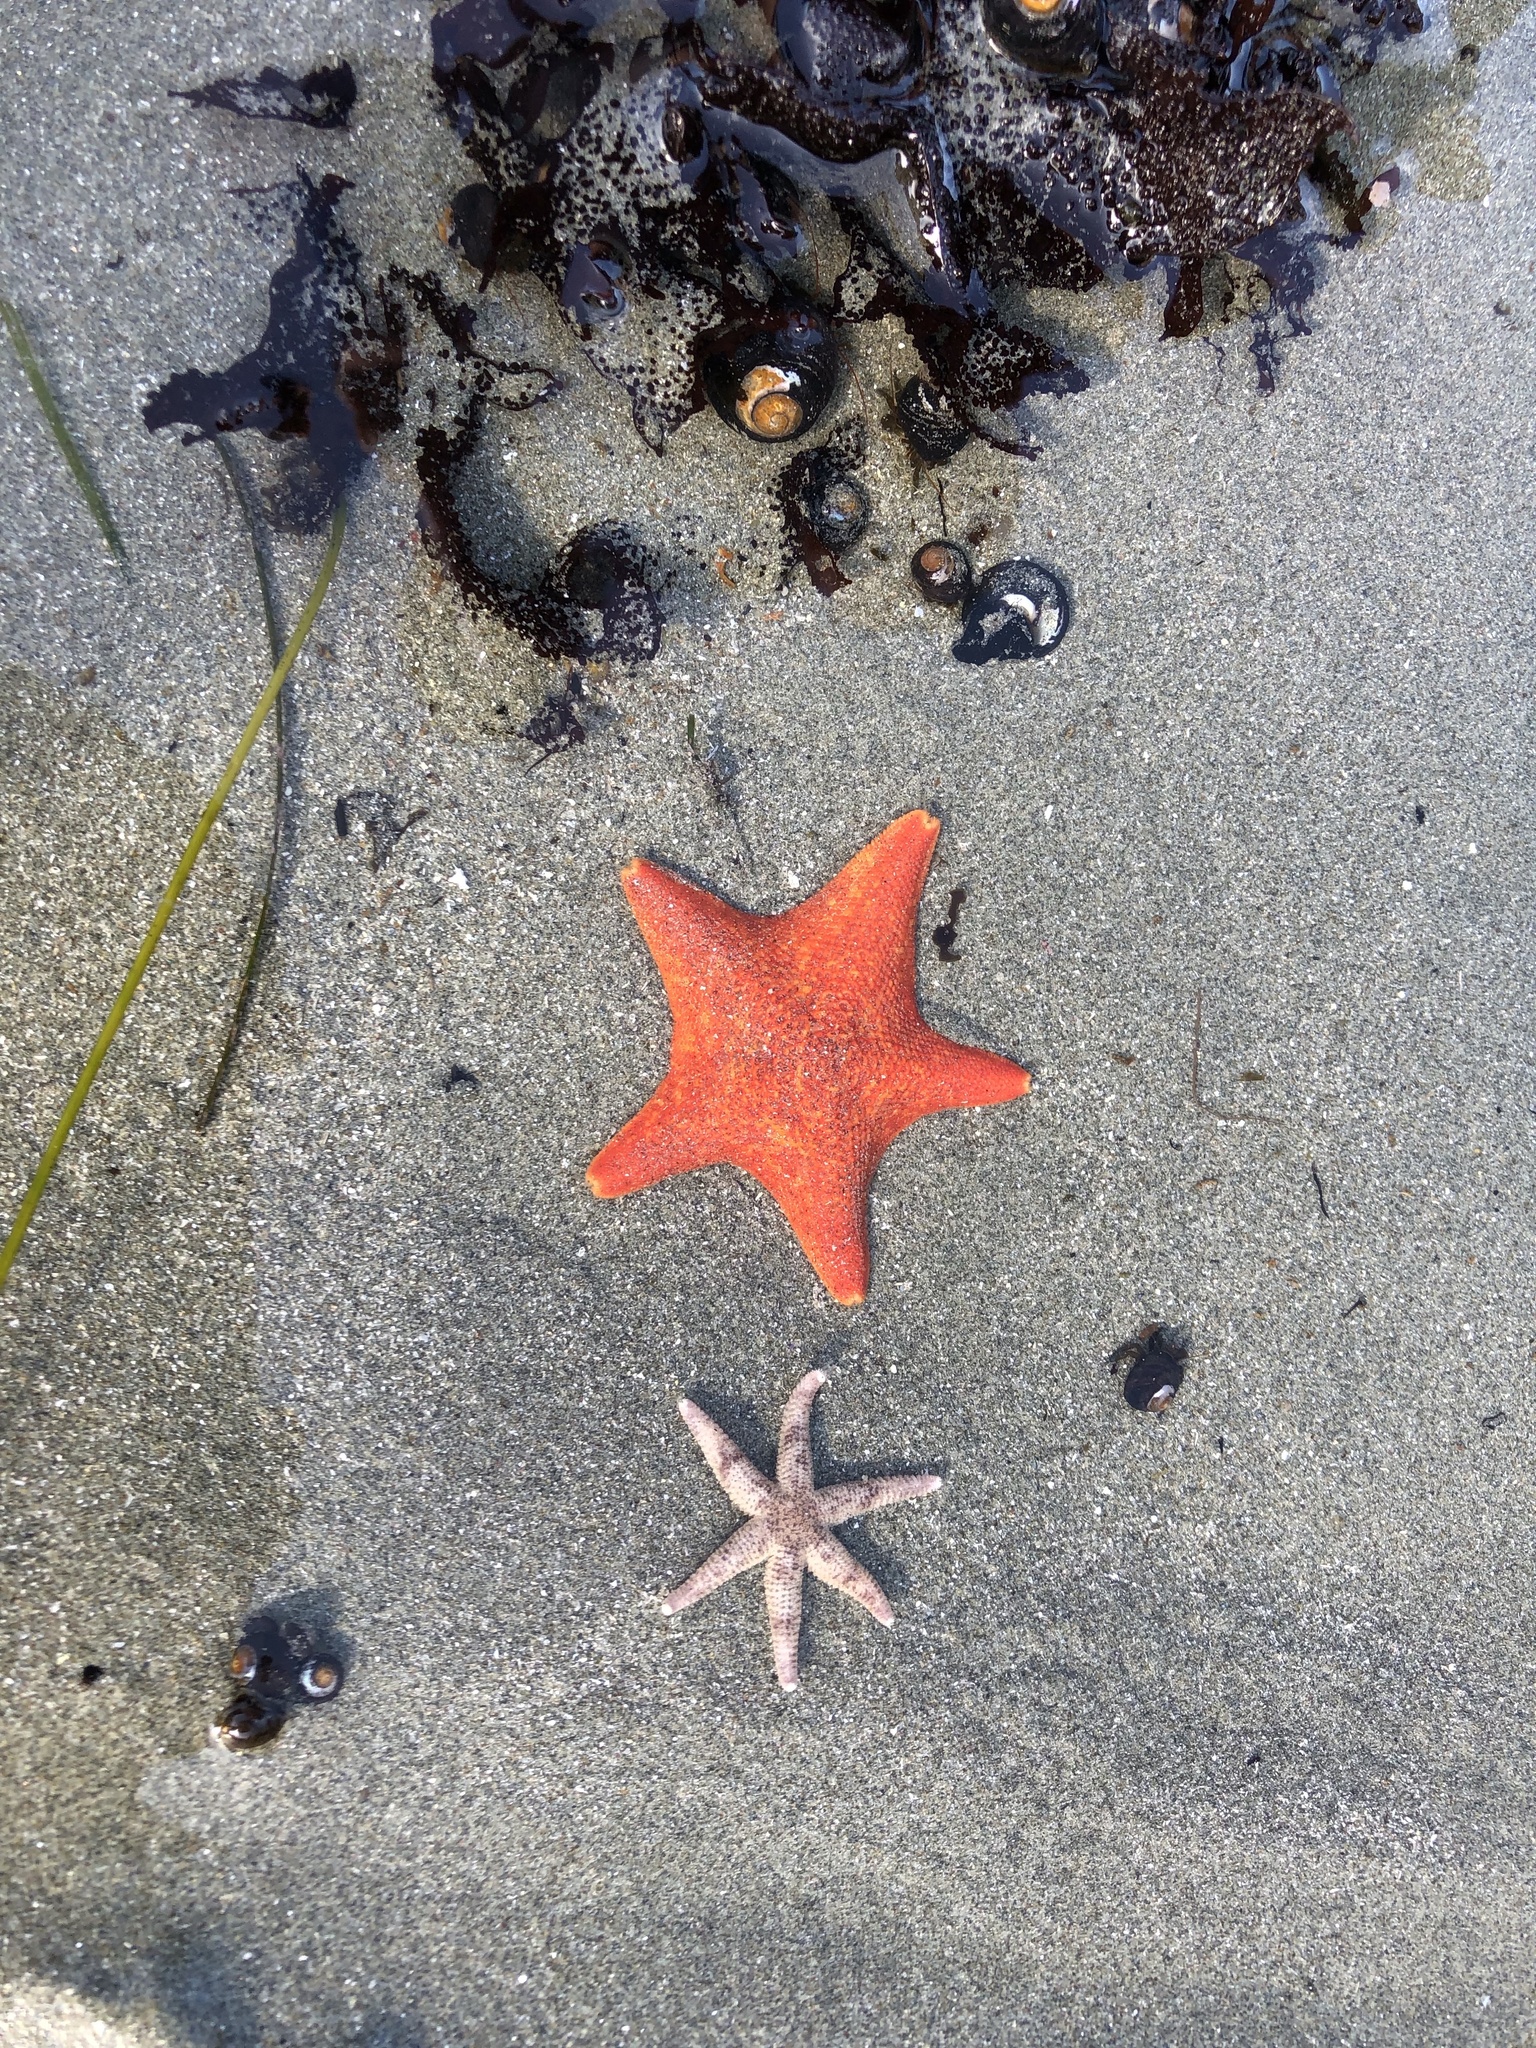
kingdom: Animalia
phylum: Echinodermata
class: Asteroidea
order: Valvatida
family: Asterinidae
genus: Patiria
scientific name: Patiria miniata
